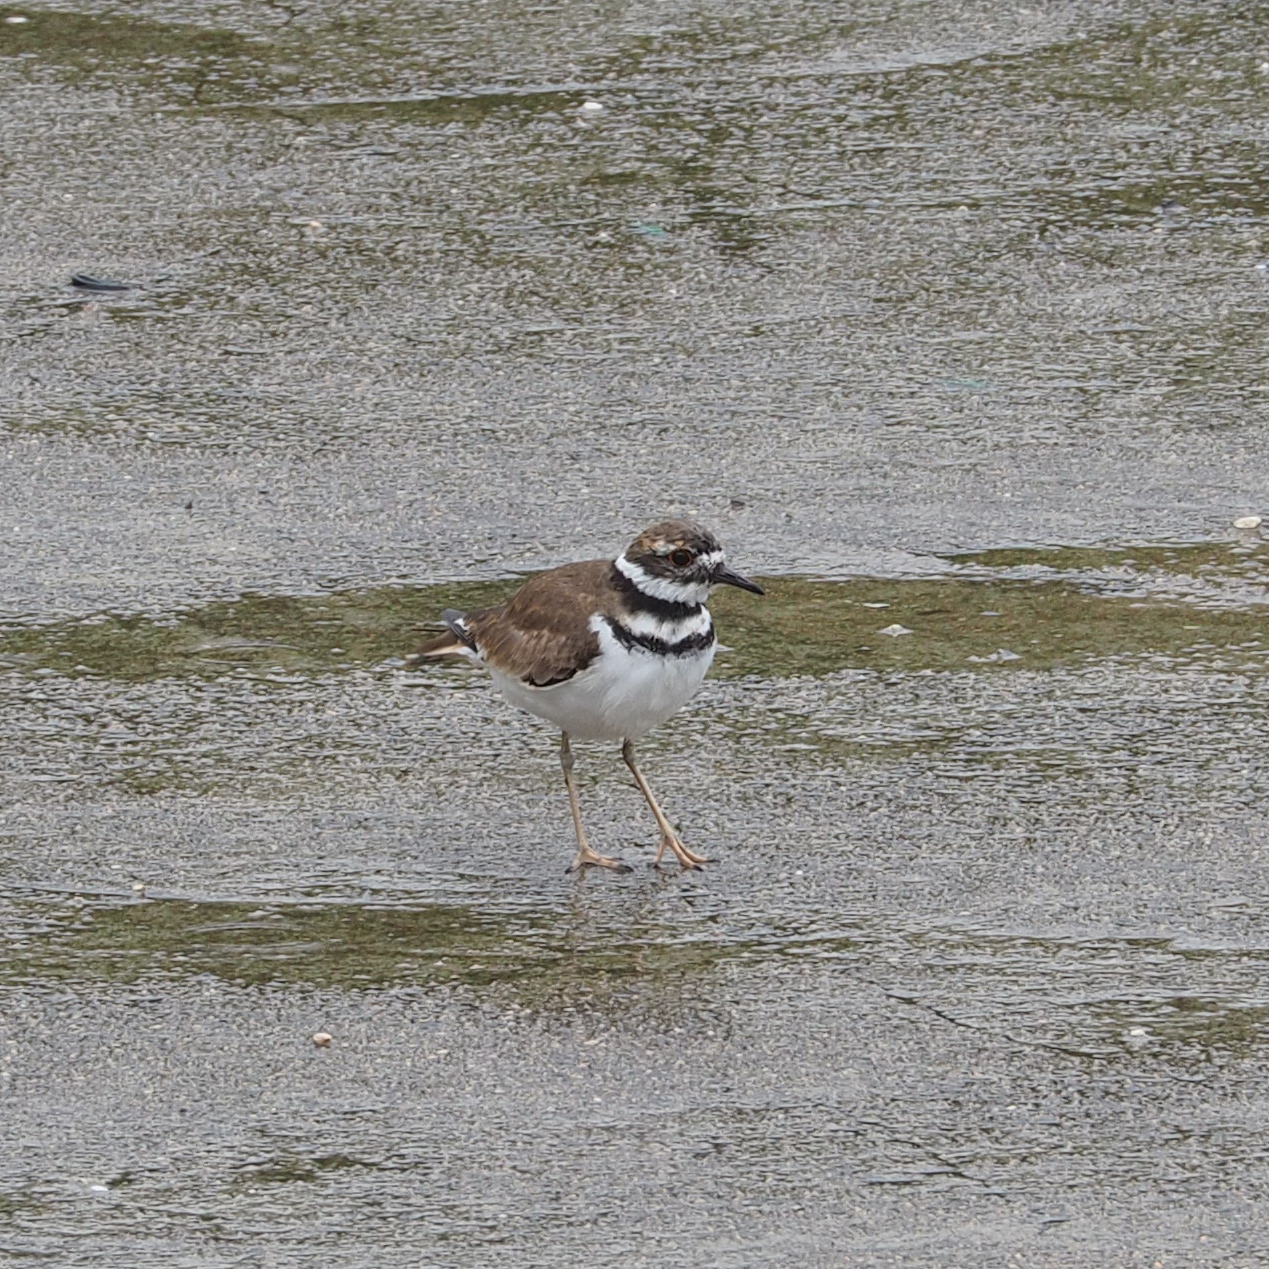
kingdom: Animalia
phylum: Chordata
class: Aves
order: Charadriiformes
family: Charadriidae
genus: Charadrius
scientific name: Charadrius vociferus
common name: Killdeer
